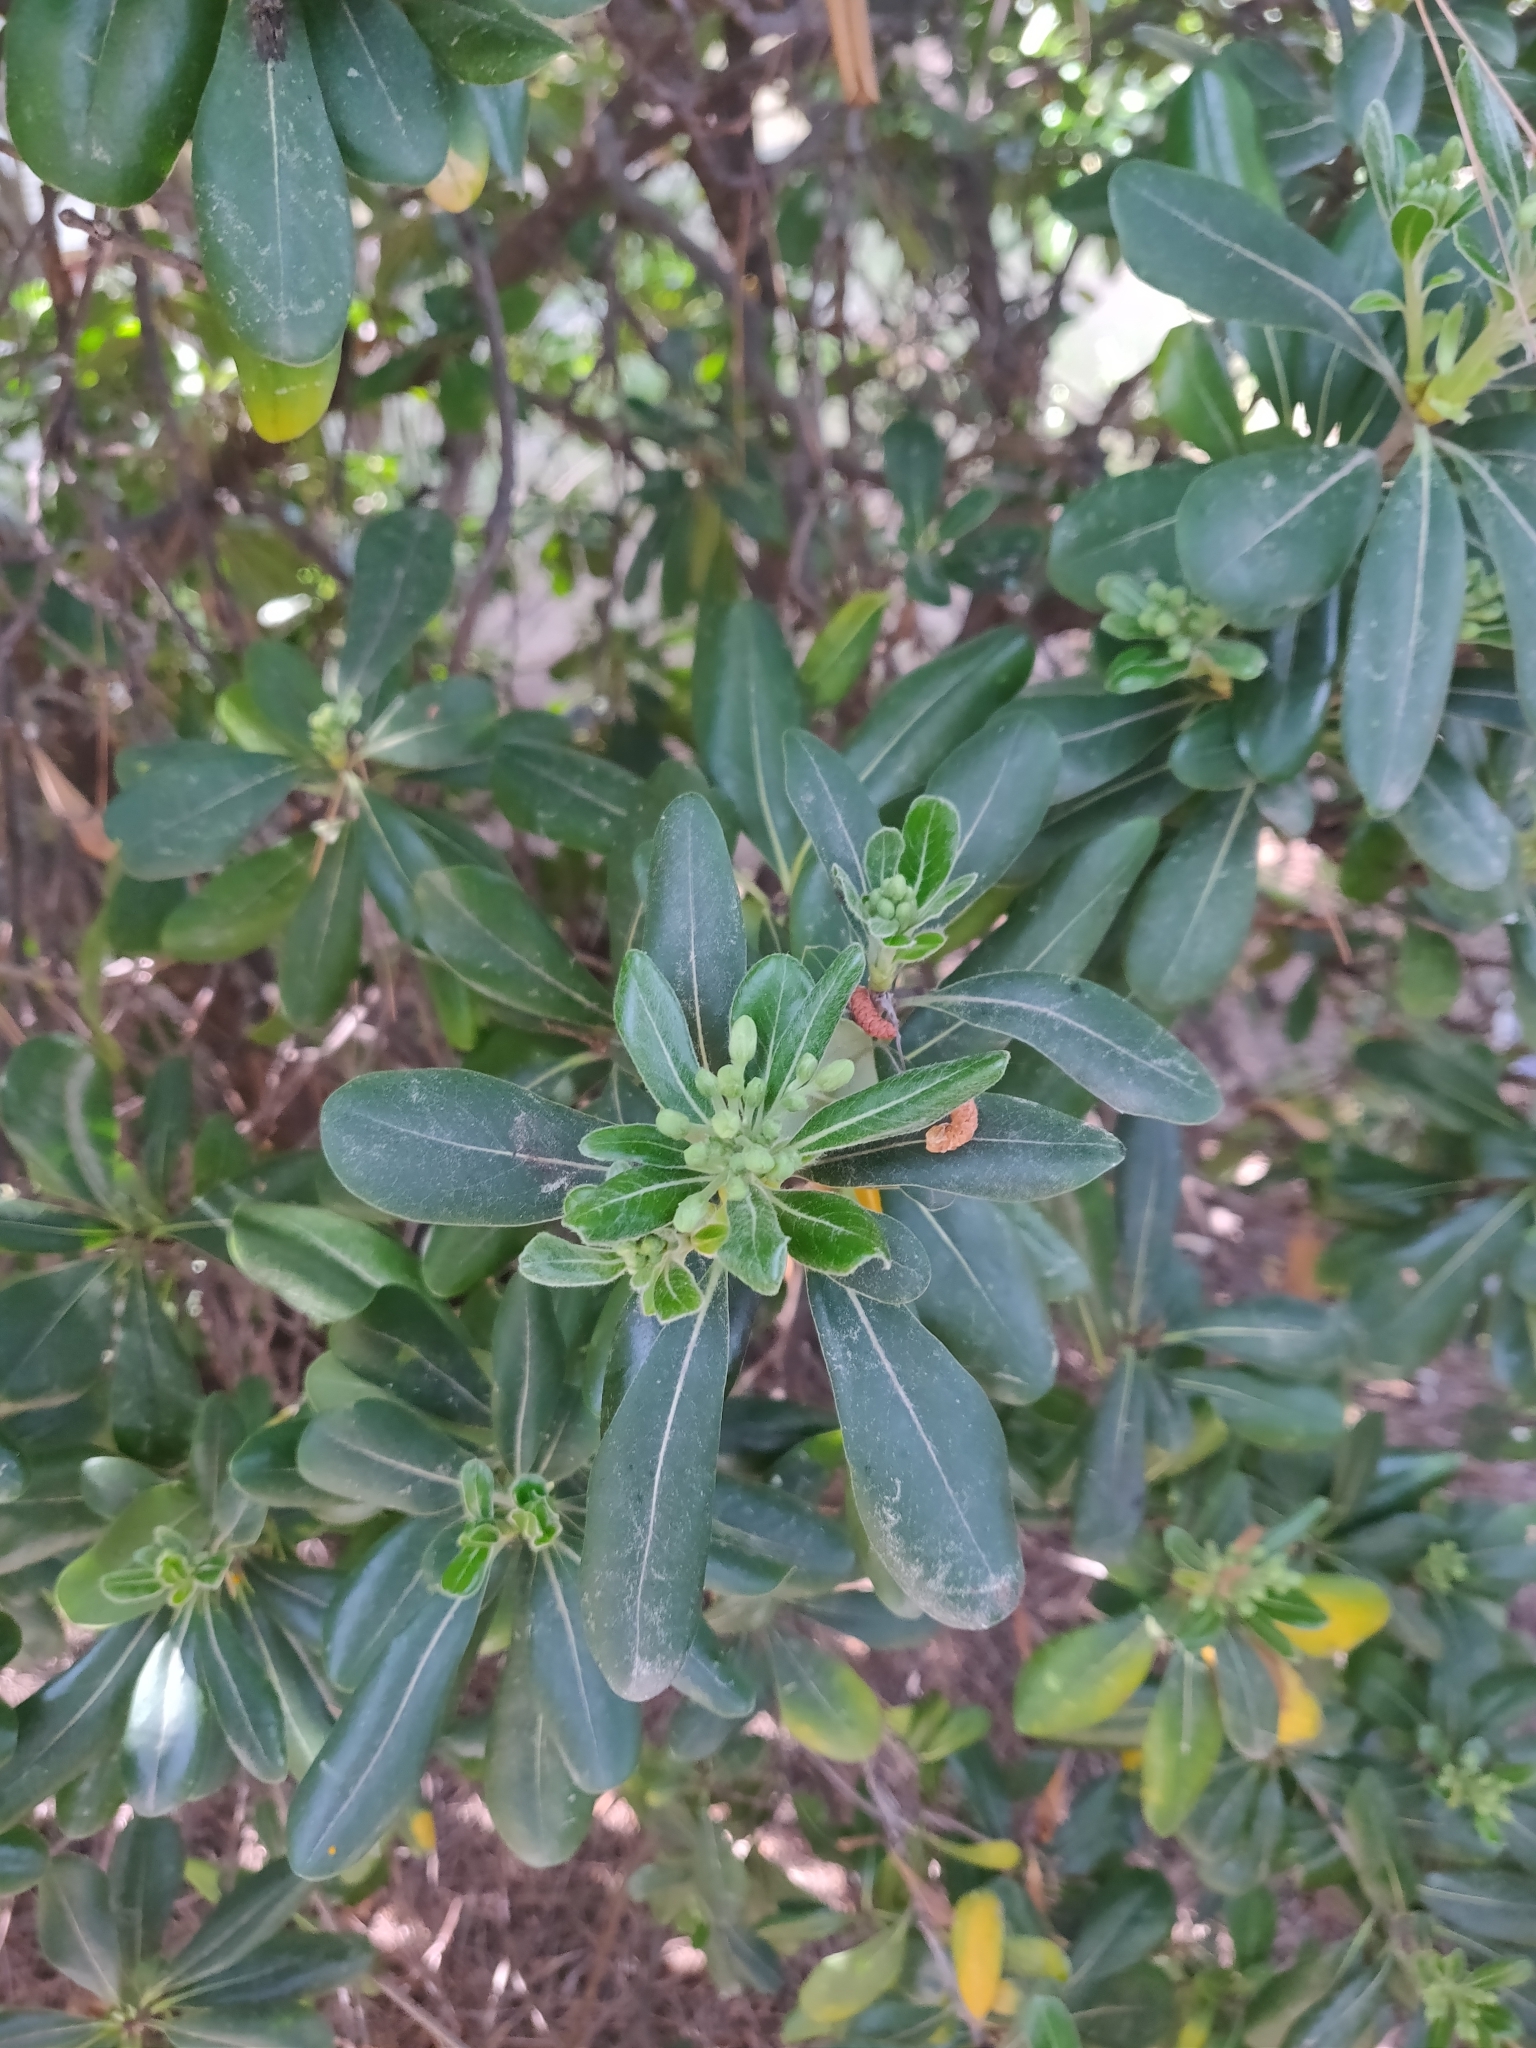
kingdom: Plantae
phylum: Tracheophyta
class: Magnoliopsida
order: Apiales
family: Pittosporaceae
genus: Pittosporum
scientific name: Pittosporum tobira
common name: Japanese cheesewood
